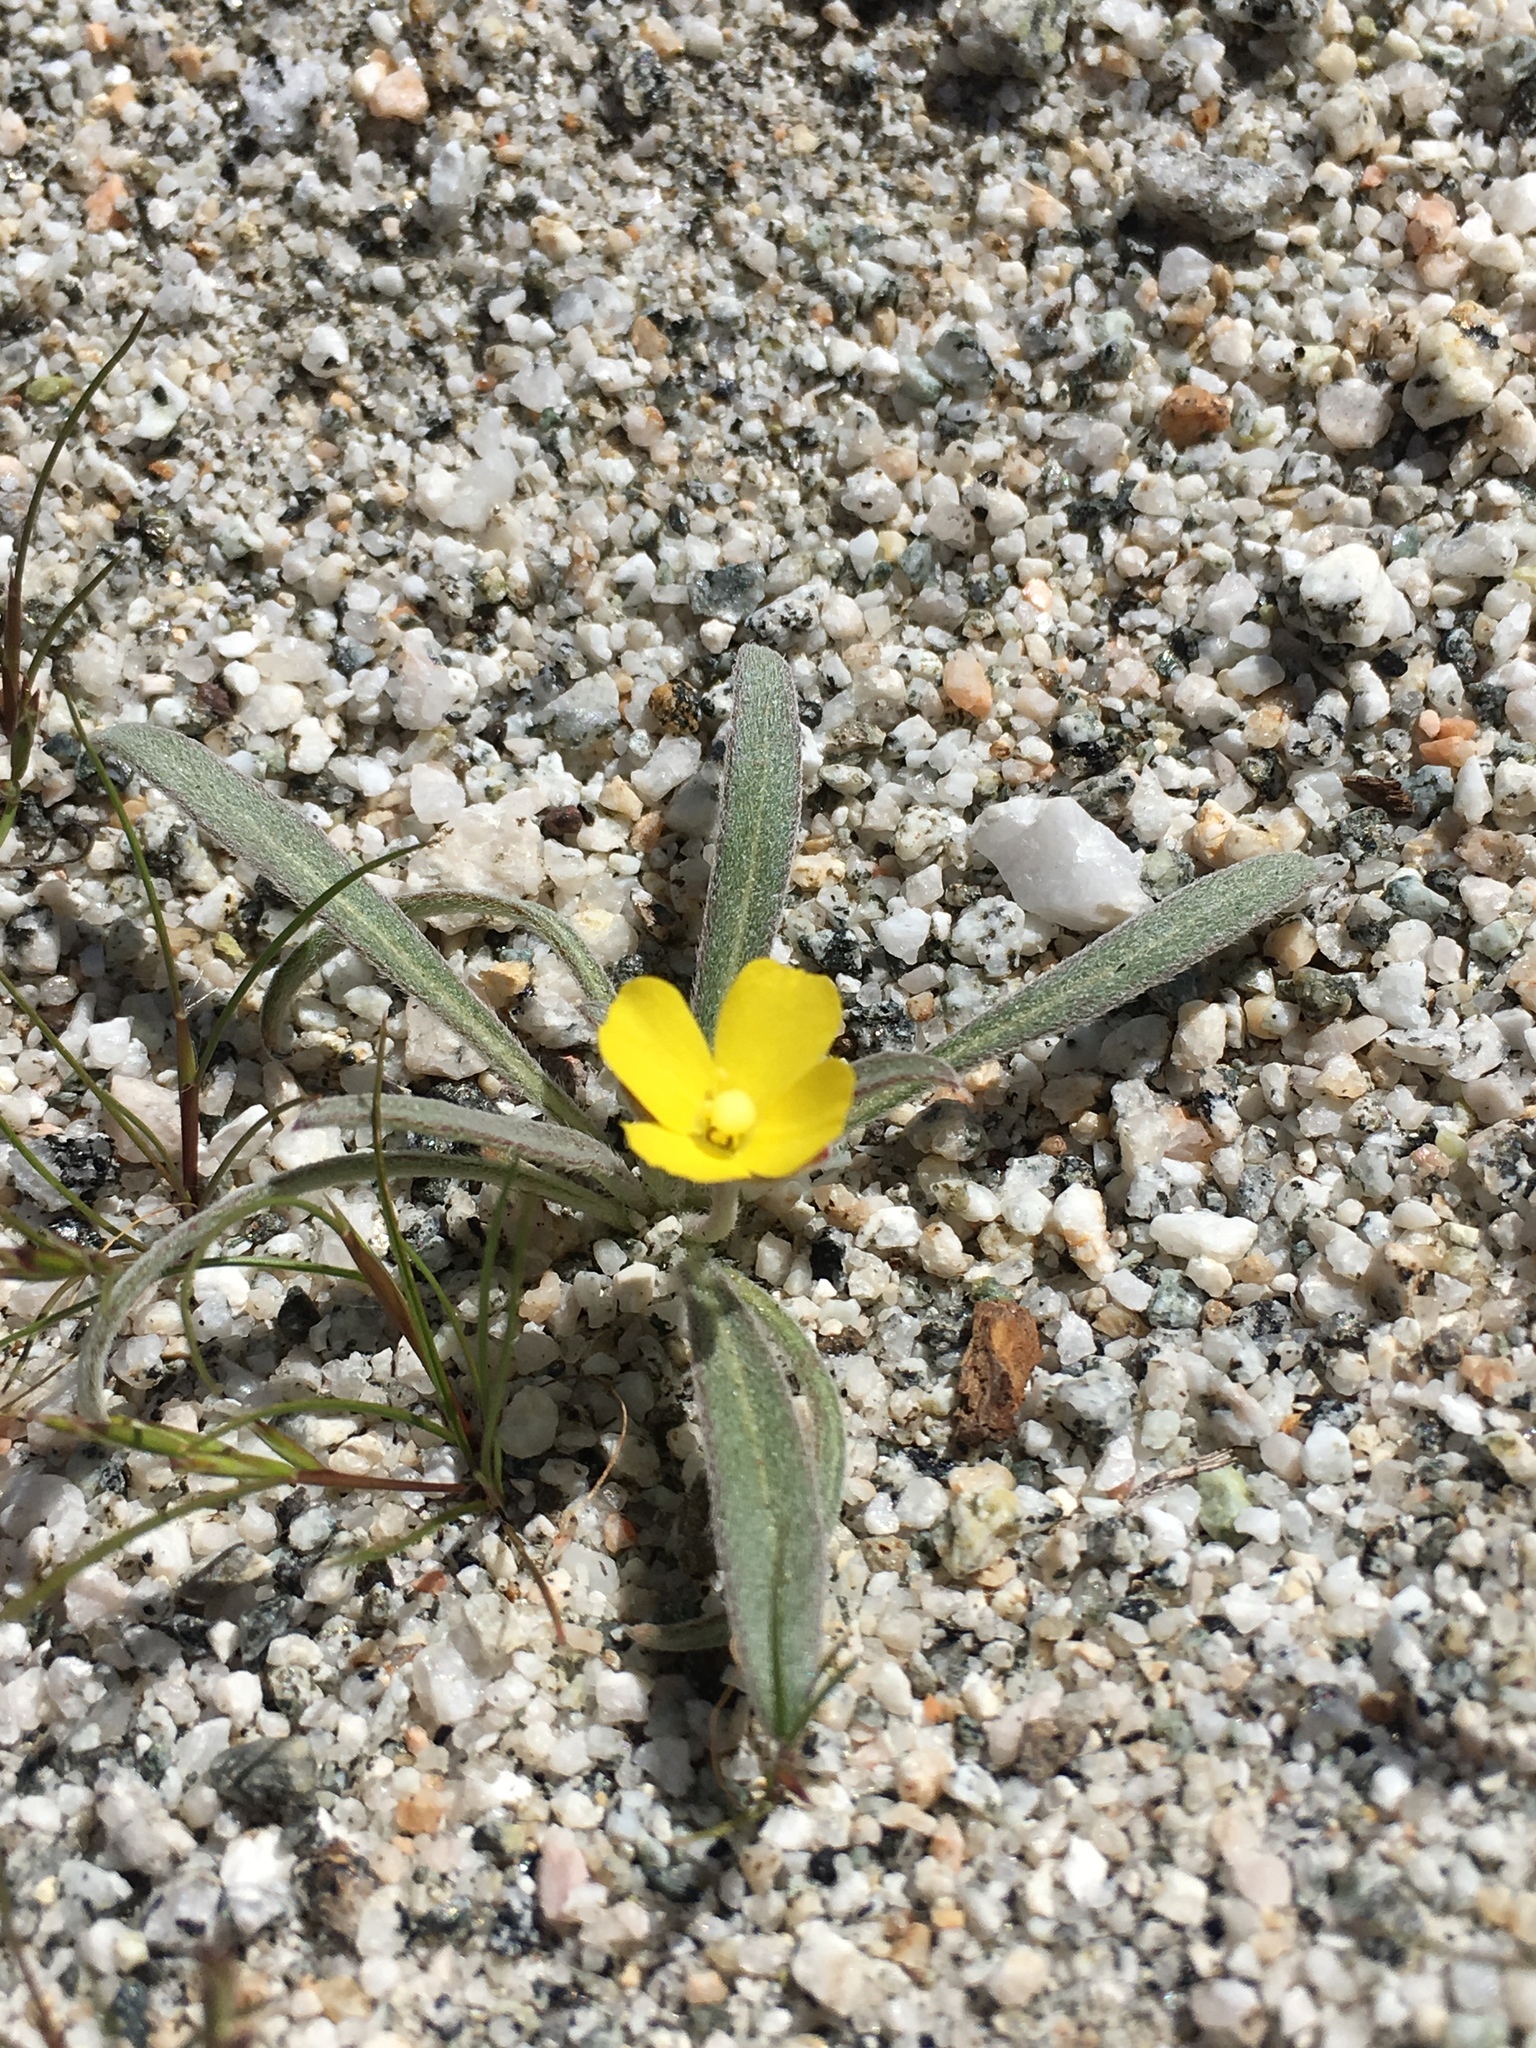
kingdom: Plantae
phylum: Tracheophyta
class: Magnoliopsida
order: Myrtales
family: Onagraceae
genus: Camissoniopsis
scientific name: Camissoniopsis pallida
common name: Paleyellow suncup
